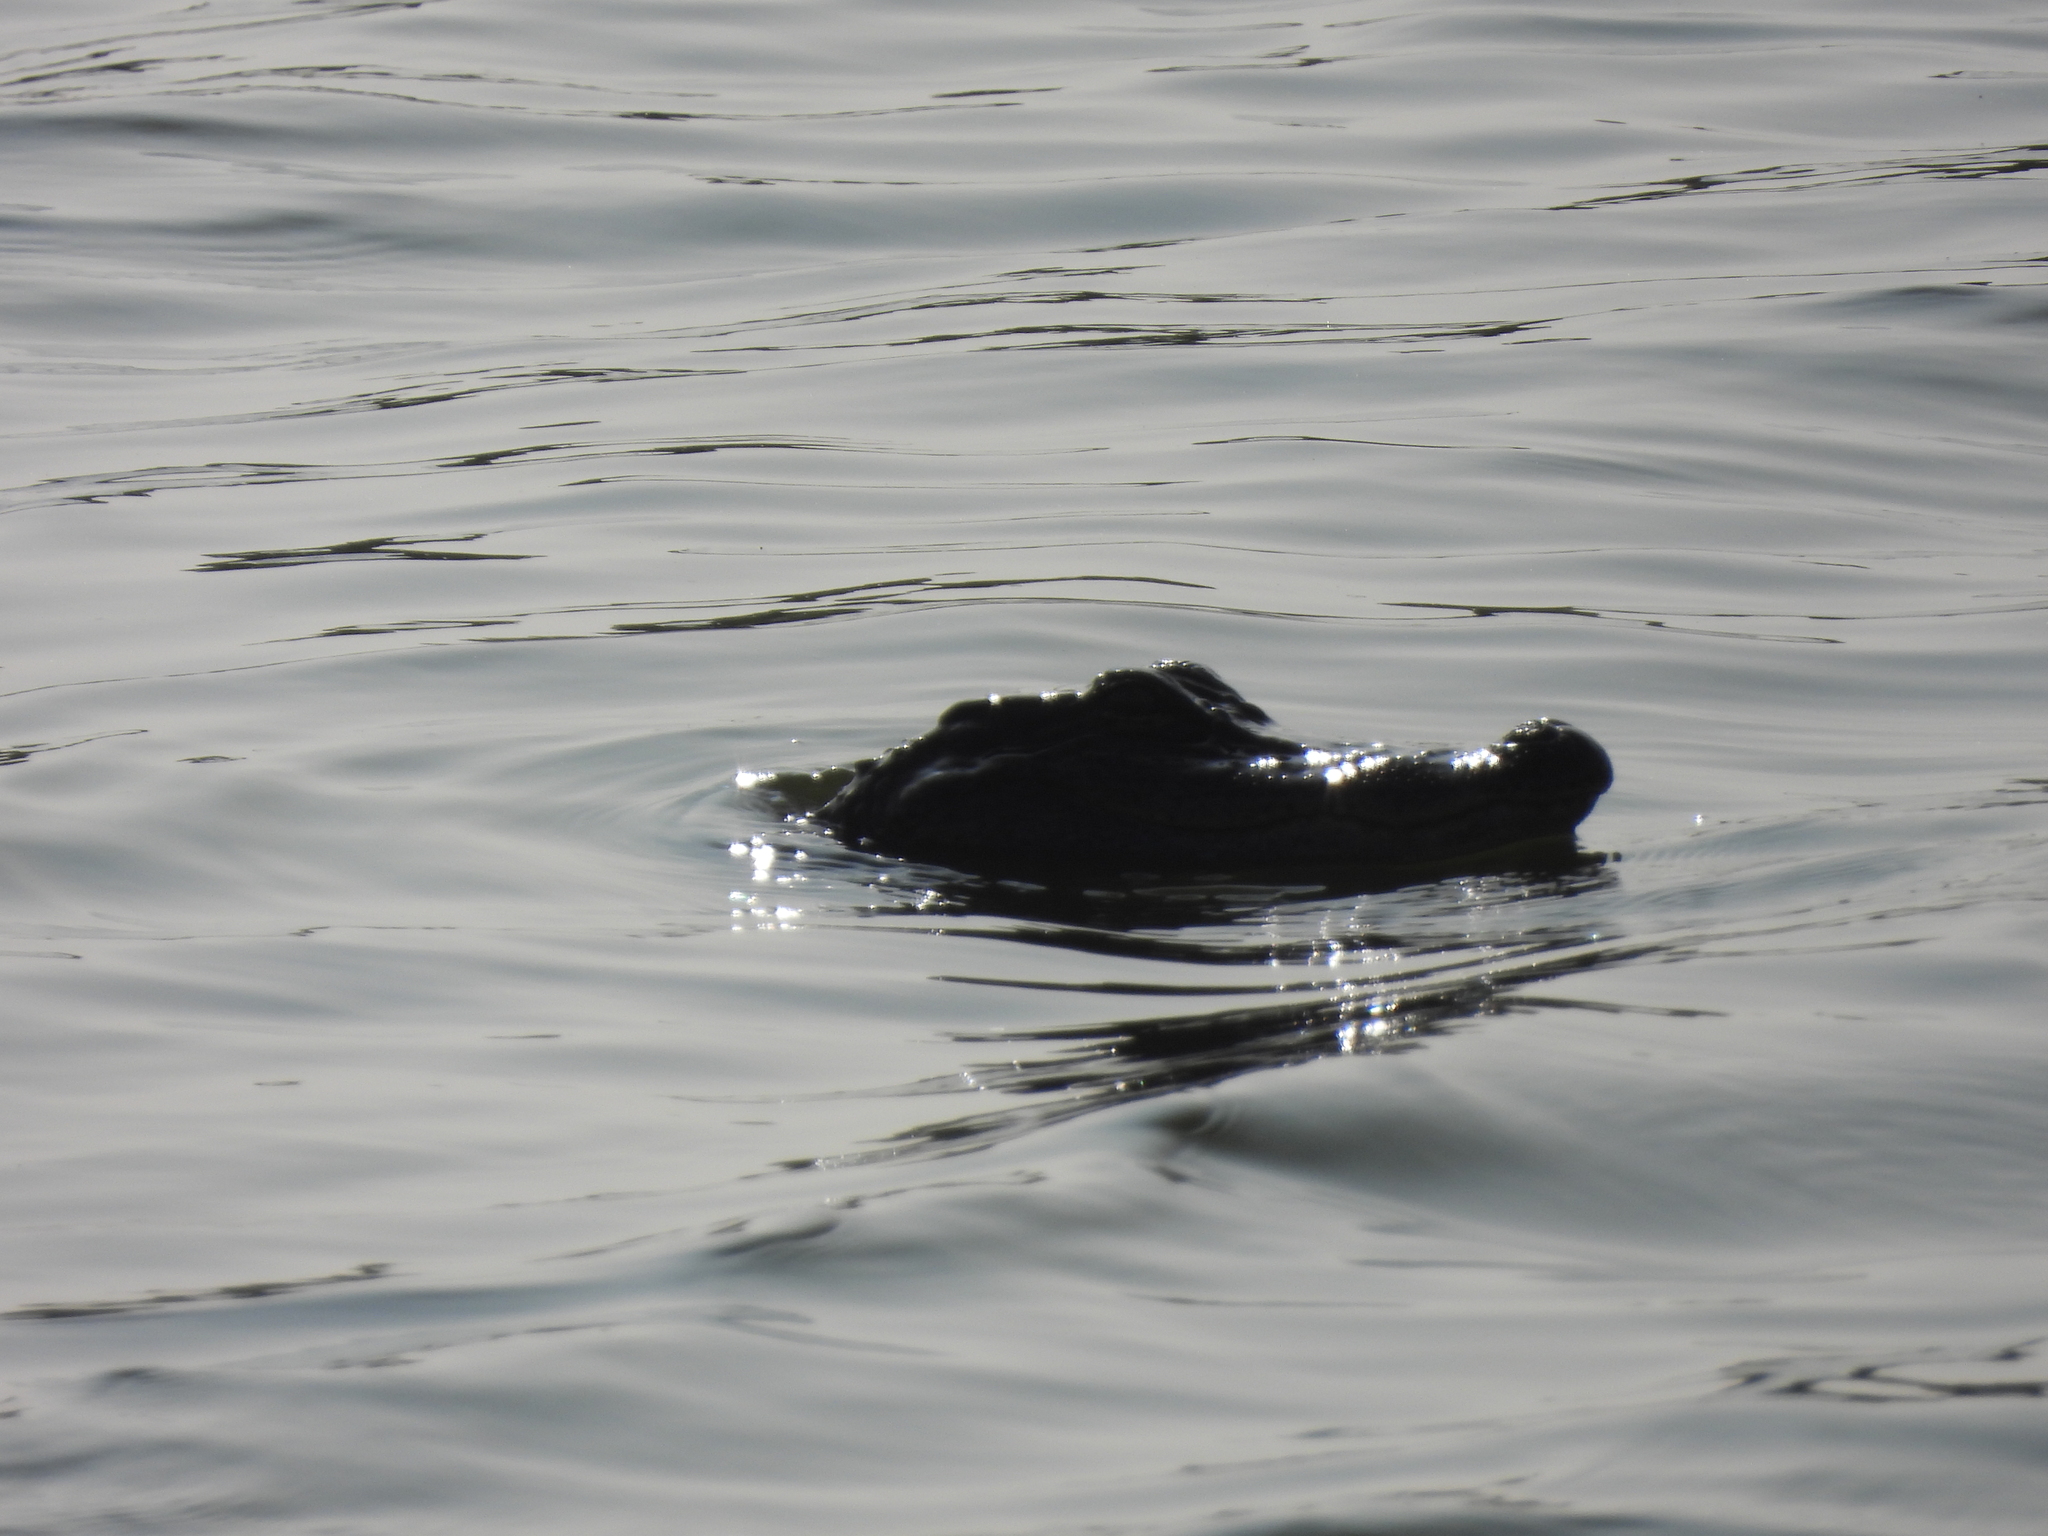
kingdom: Animalia
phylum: Chordata
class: Crocodylia
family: Alligatoridae
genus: Alligator
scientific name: Alligator mississippiensis
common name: American alligator
